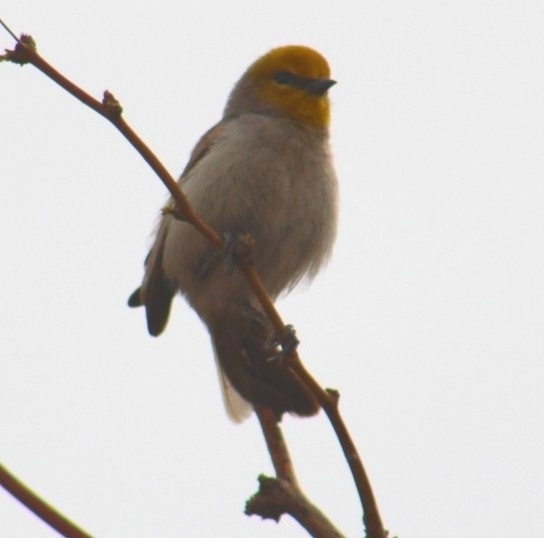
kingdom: Animalia
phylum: Chordata
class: Aves
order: Passeriformes
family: Remizidae
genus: Auriparus
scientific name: Auriparus flaviceps
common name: Verdin
